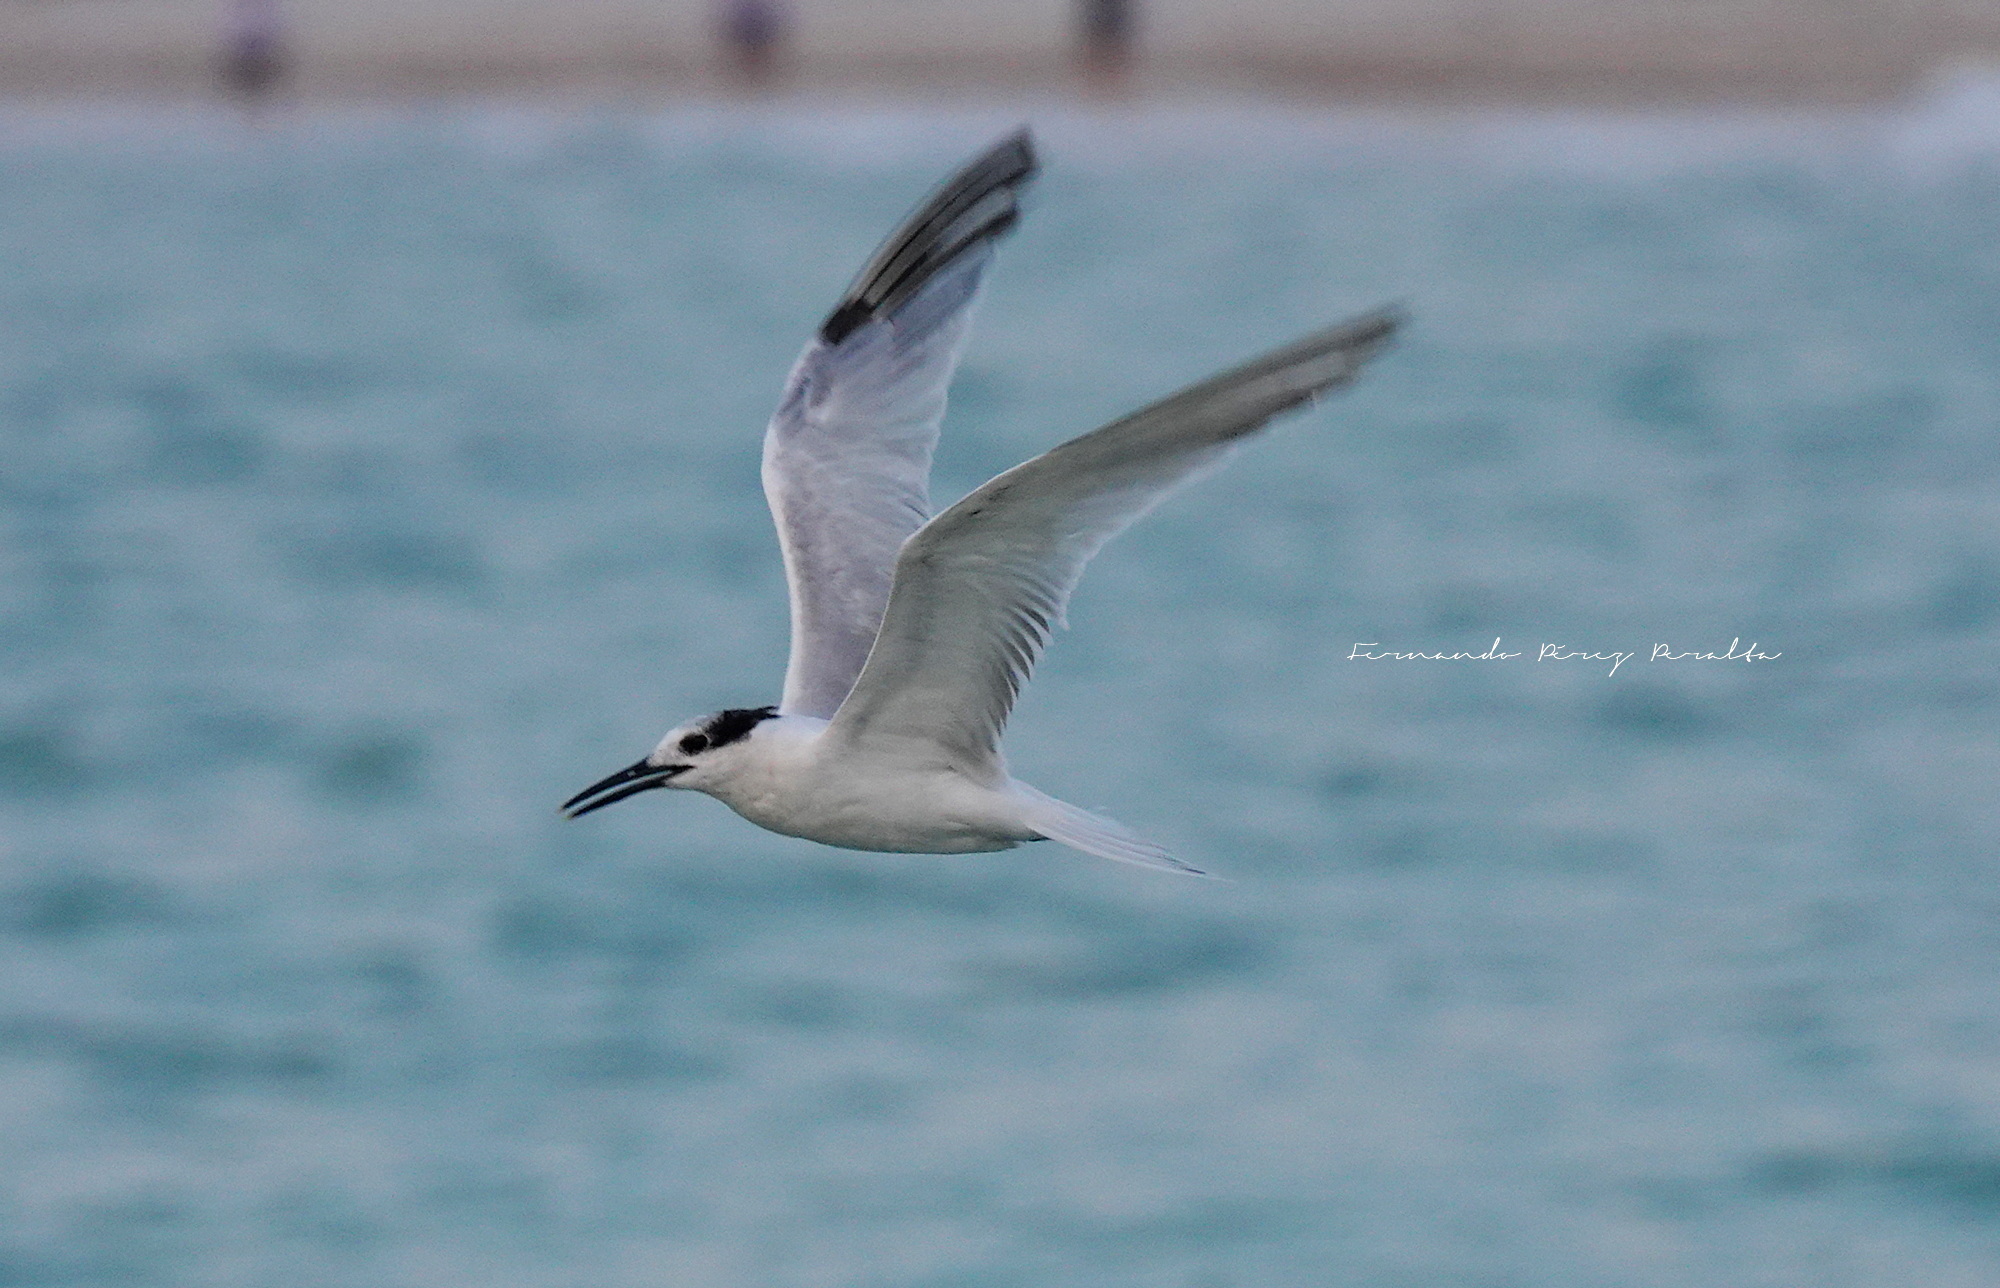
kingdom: Animalia
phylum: Chordata
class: Aves
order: Charadriiformes
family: Laridae
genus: Thalasseus
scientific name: Thalasseus sandvicensis
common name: Sandwich tern
